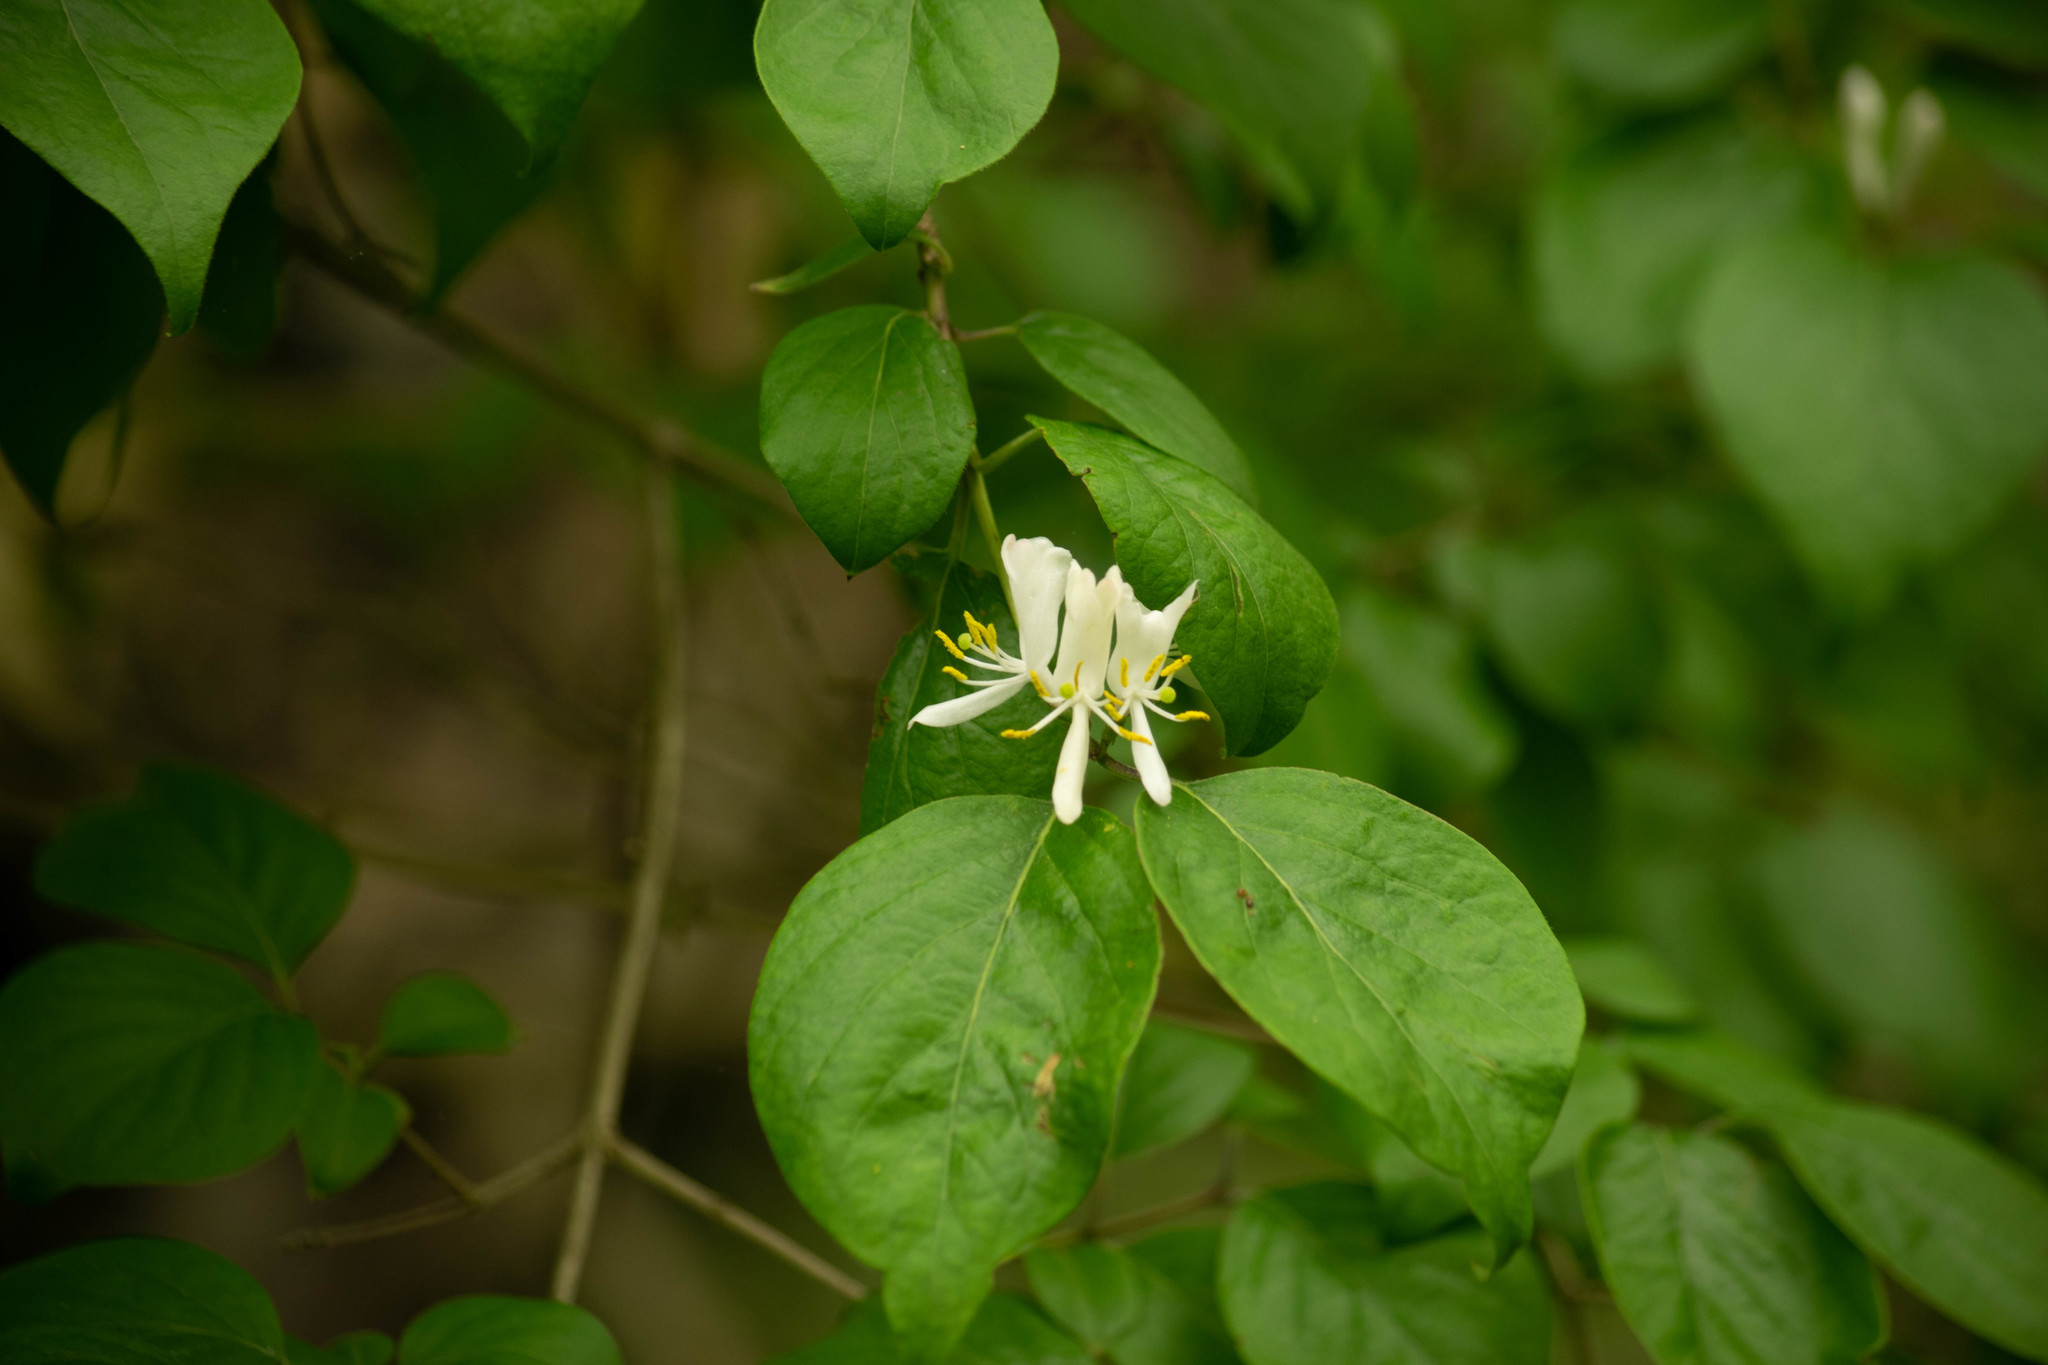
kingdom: Plantae
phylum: Tracheophyta
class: Magnoliopsida
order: Dipsacales
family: Caprifoliaceae
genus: Lonicera
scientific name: Lonicera maackii
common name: Amur honeysuckle
